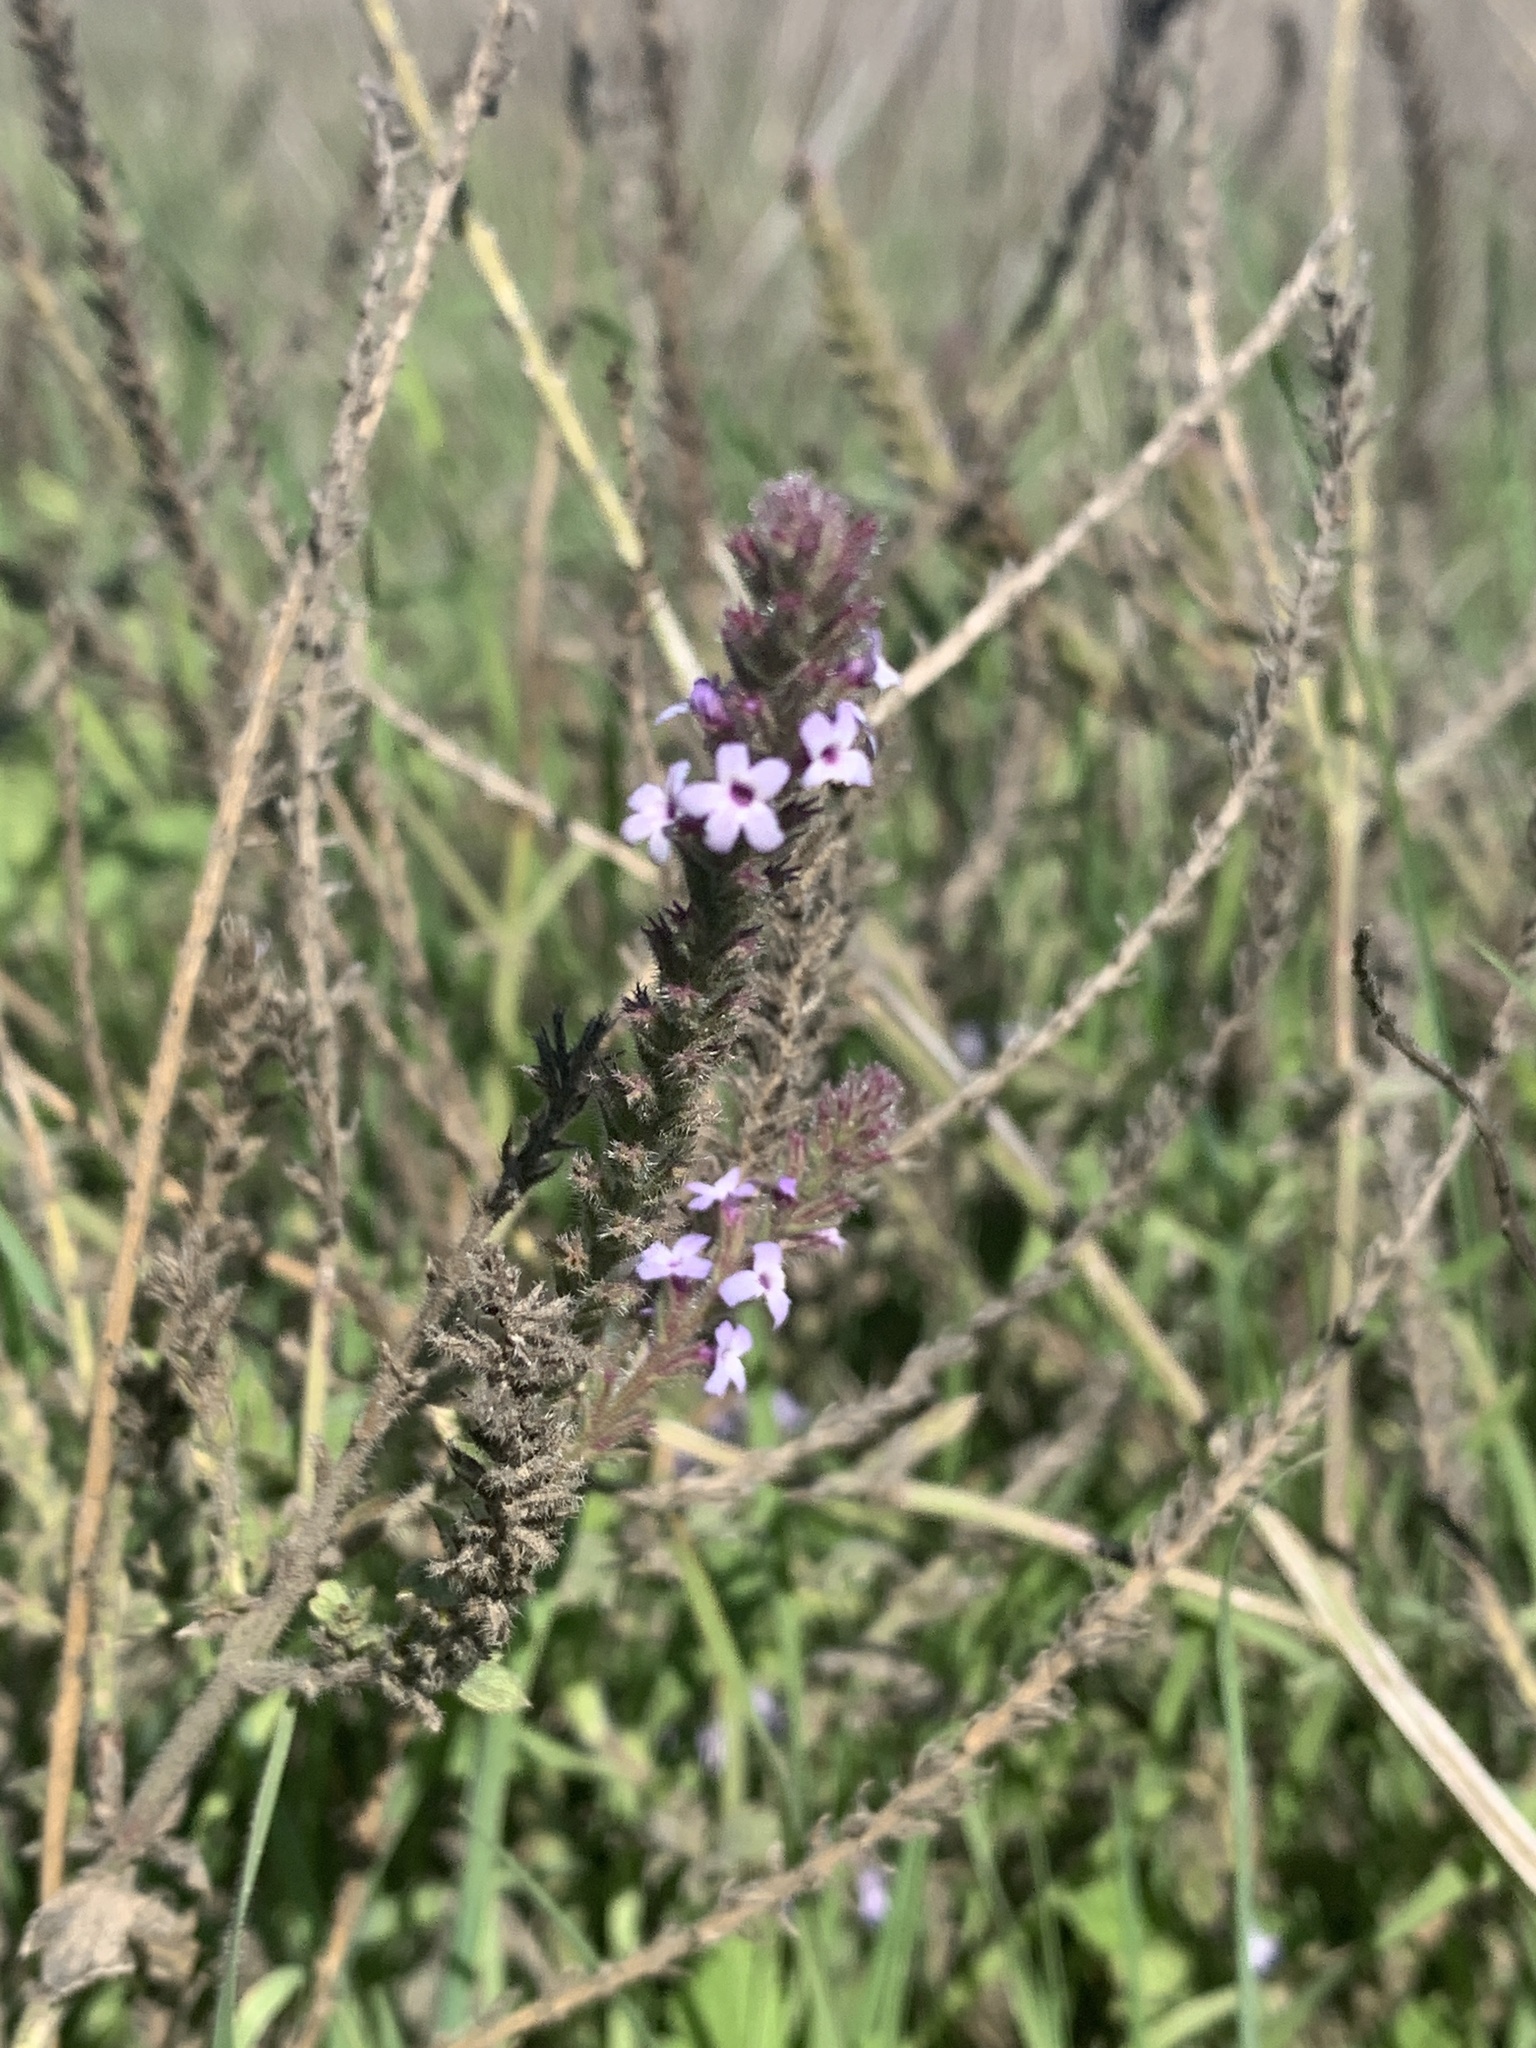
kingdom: Plantae
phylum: Tracheophyta
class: Magnoliopsida
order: Lamiales
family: Verbenaceae
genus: Verbena
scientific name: Verbena lasiostachys
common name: Vervain
